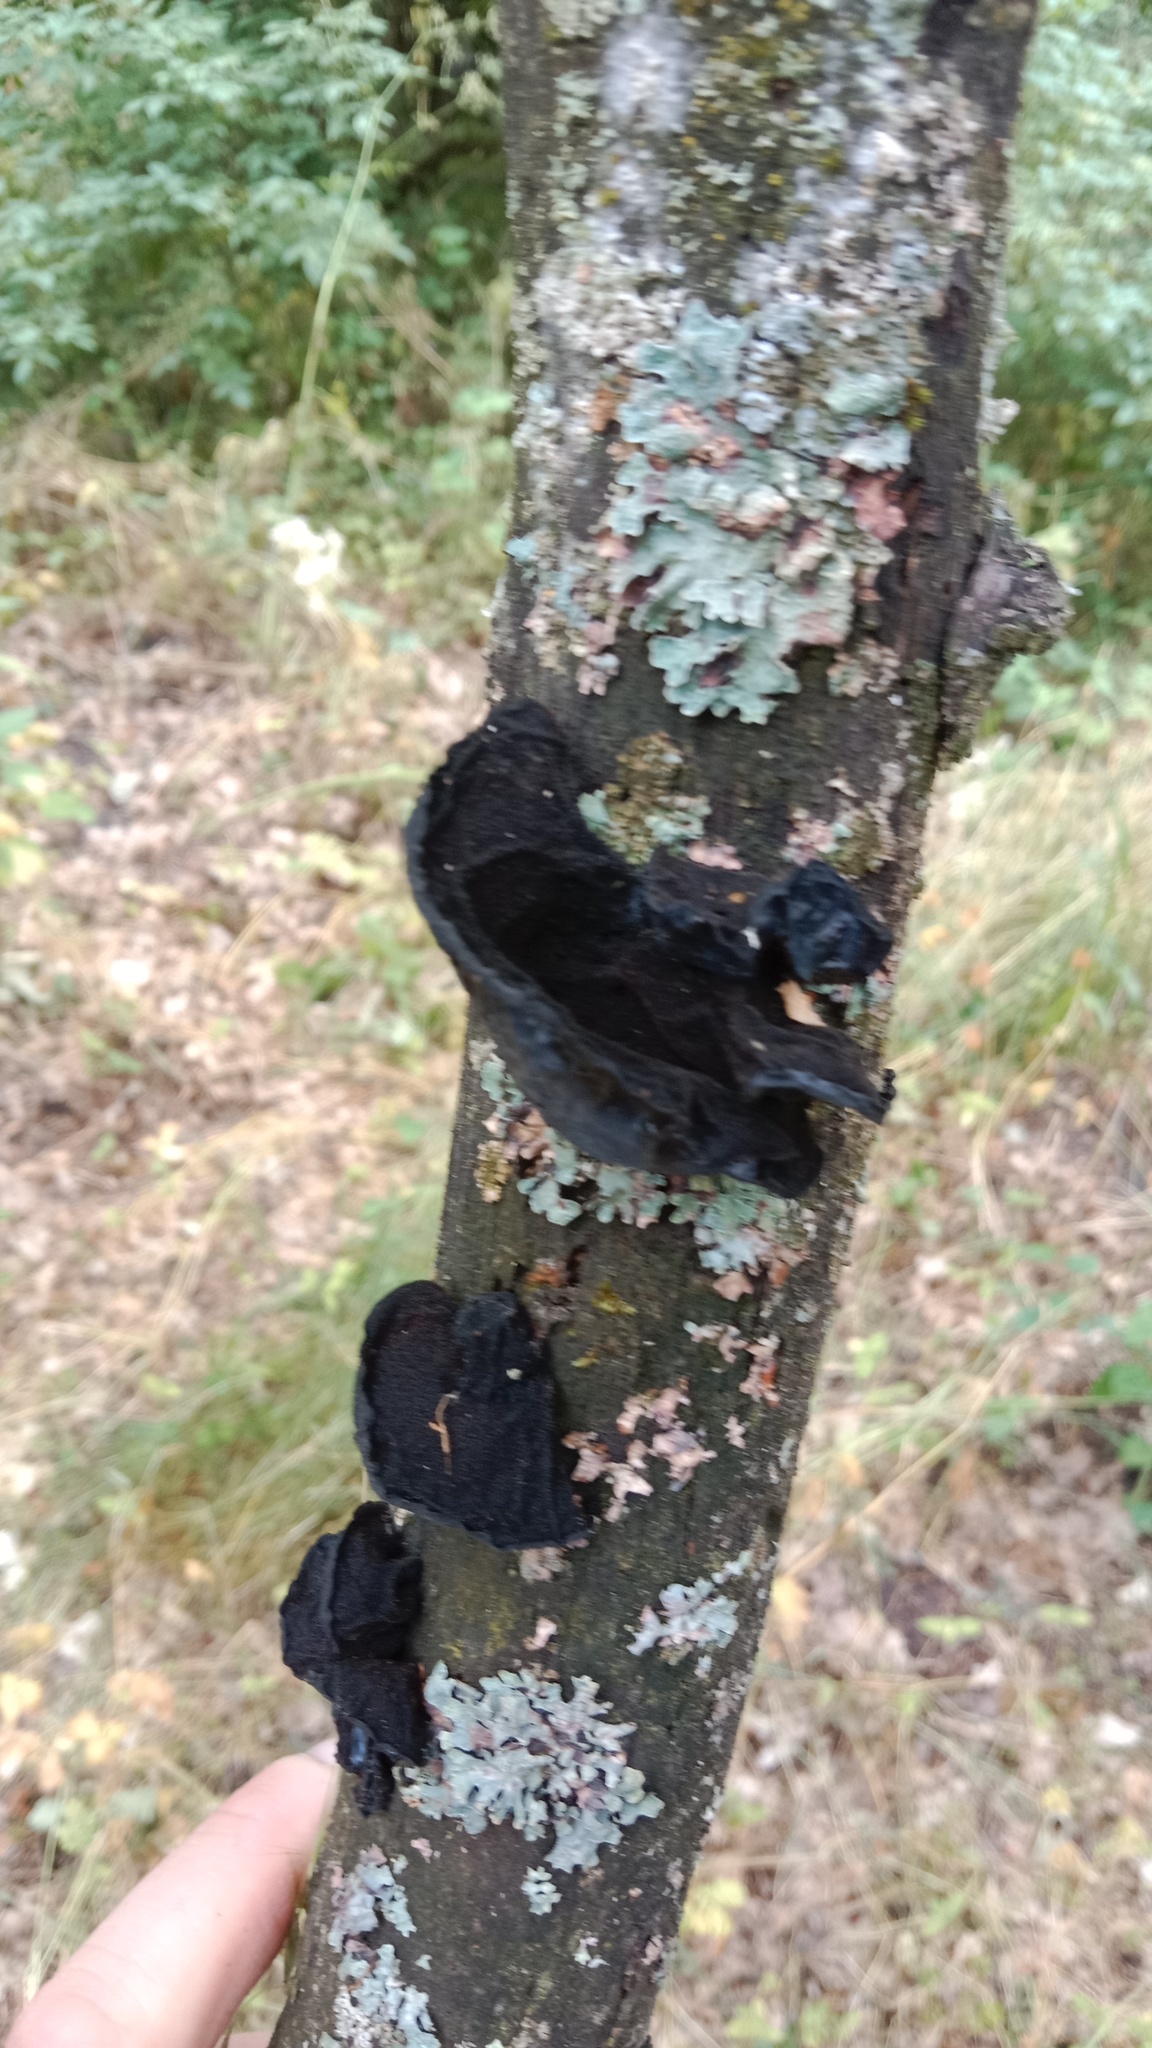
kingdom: Fungi
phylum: Basidiomycota
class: Agaricomycetes
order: Auriculariales
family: Auriculariaceae
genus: Exidia
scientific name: Exidia glandulosa
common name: Witches' butter
